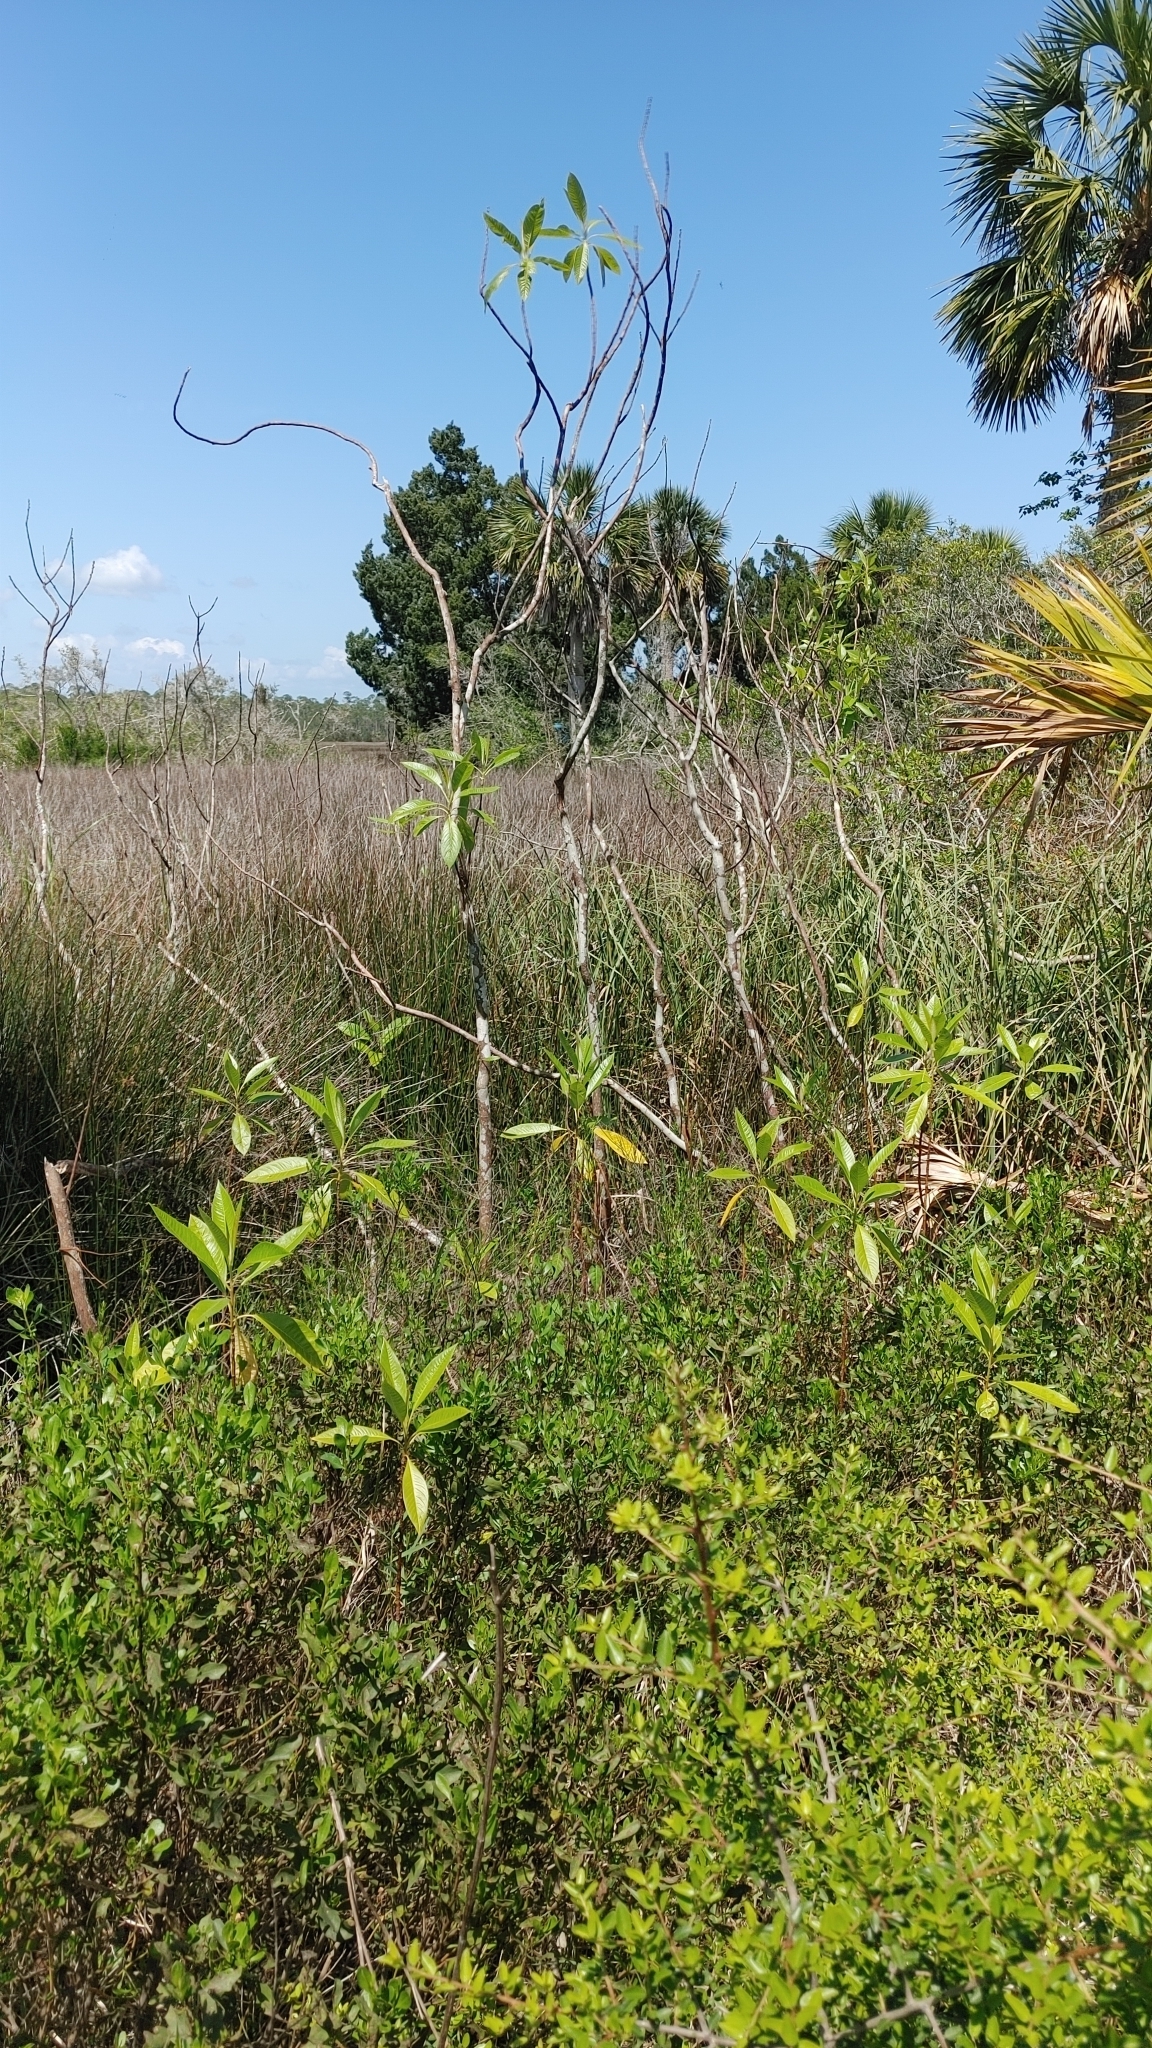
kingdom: Plantae
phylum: Tracheophyta
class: Magnoliopsida
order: Sapindales
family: Simaroubaceae
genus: Leitneria
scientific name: Leitneria floridana
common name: Corkwood
